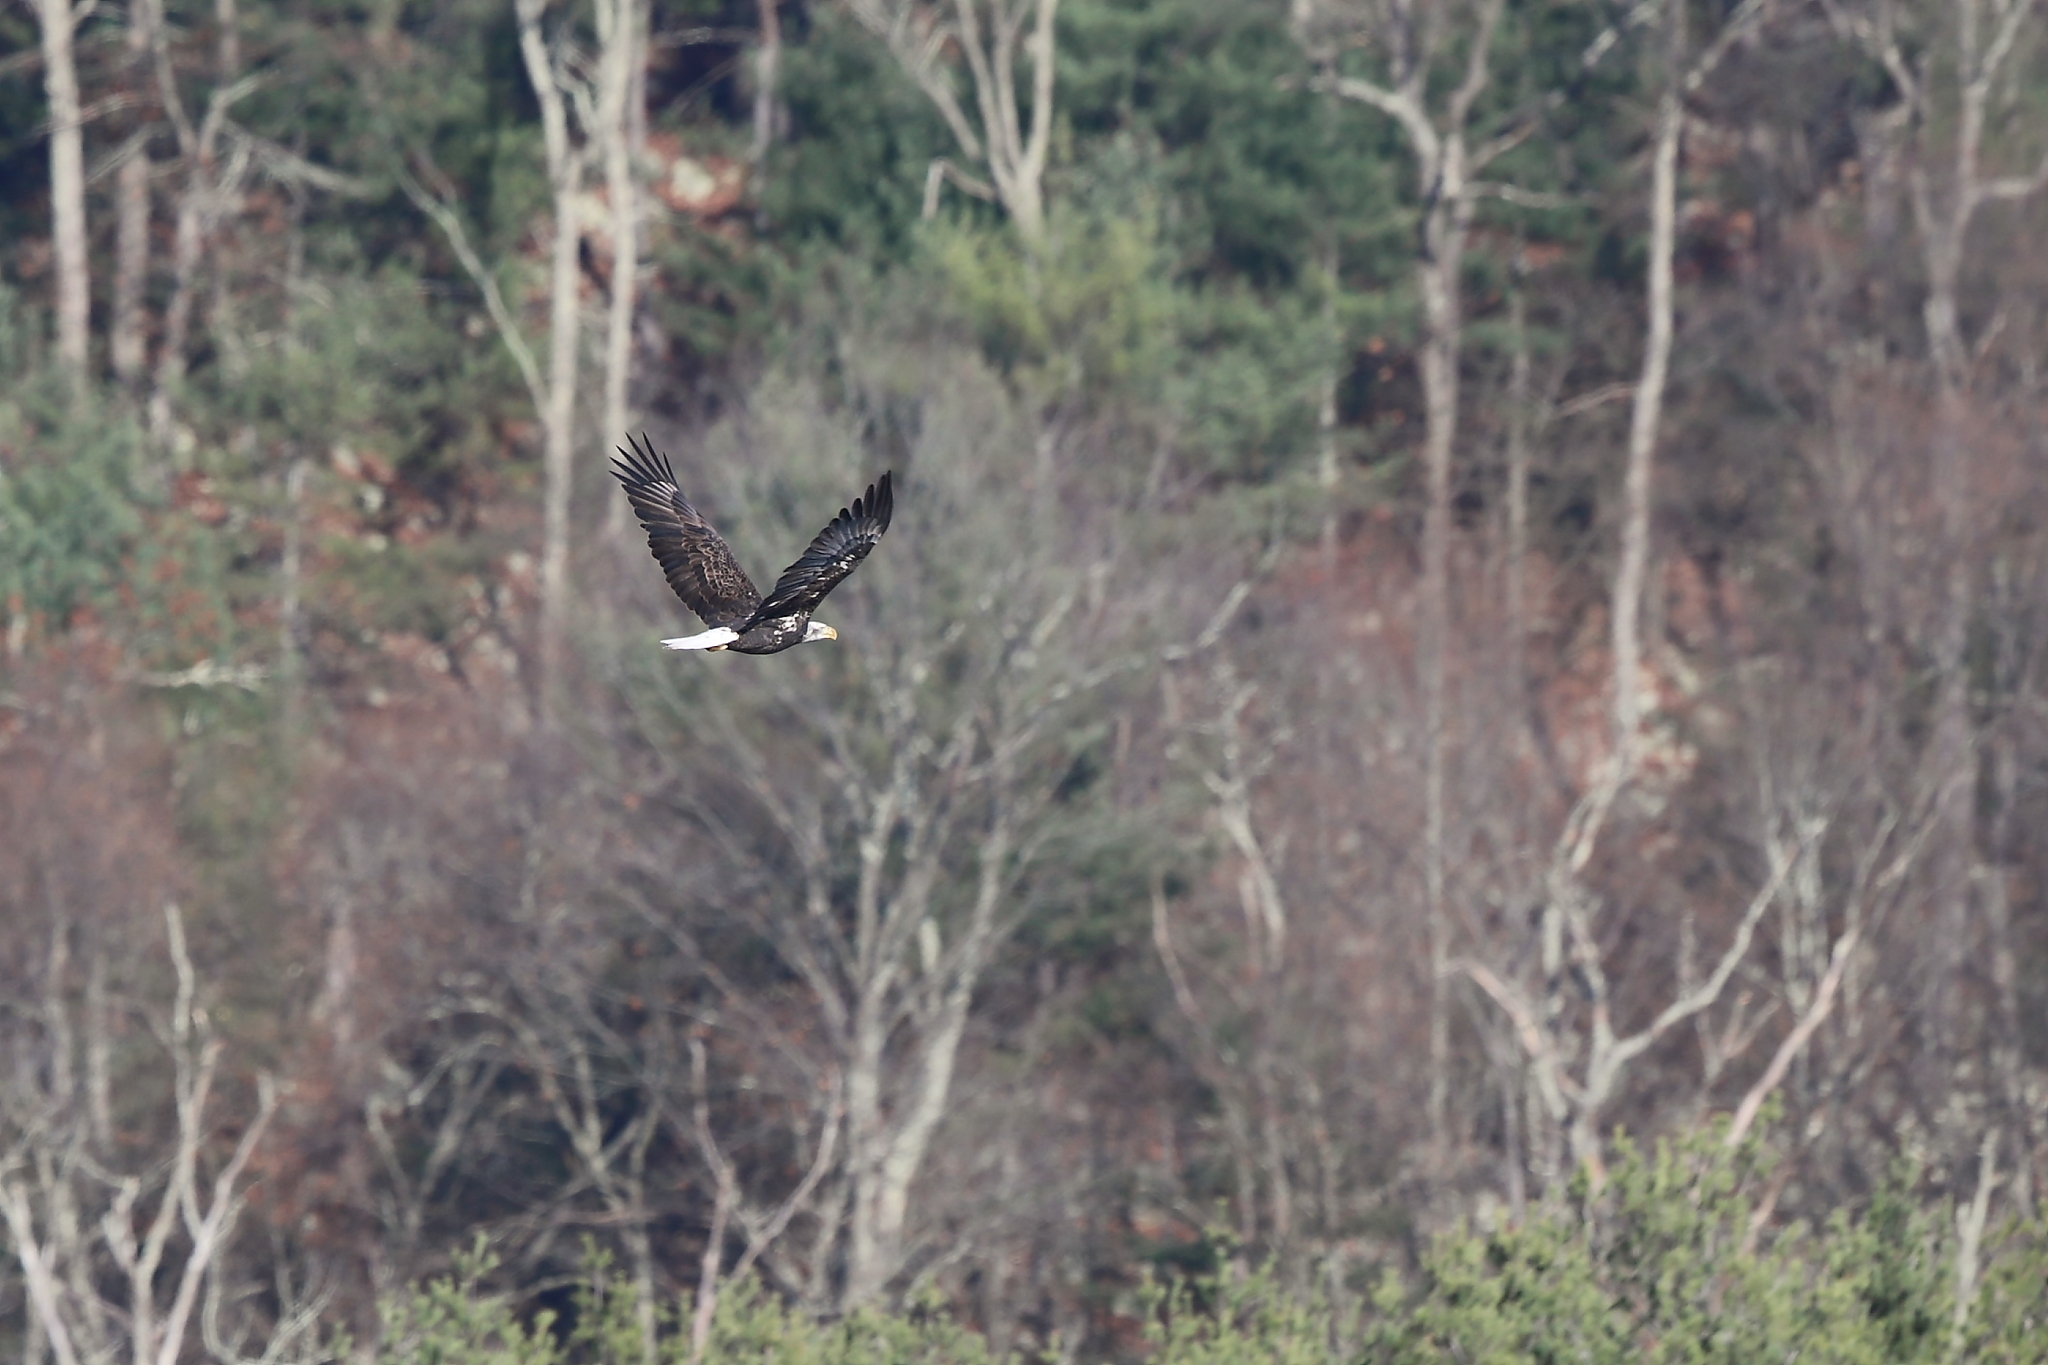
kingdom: Animalia
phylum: Chordata
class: Aves
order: Accipitriformes
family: Accipitridae
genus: Haliaeetus
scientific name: Haliaeetus leucocephalus
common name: Bald eagle
